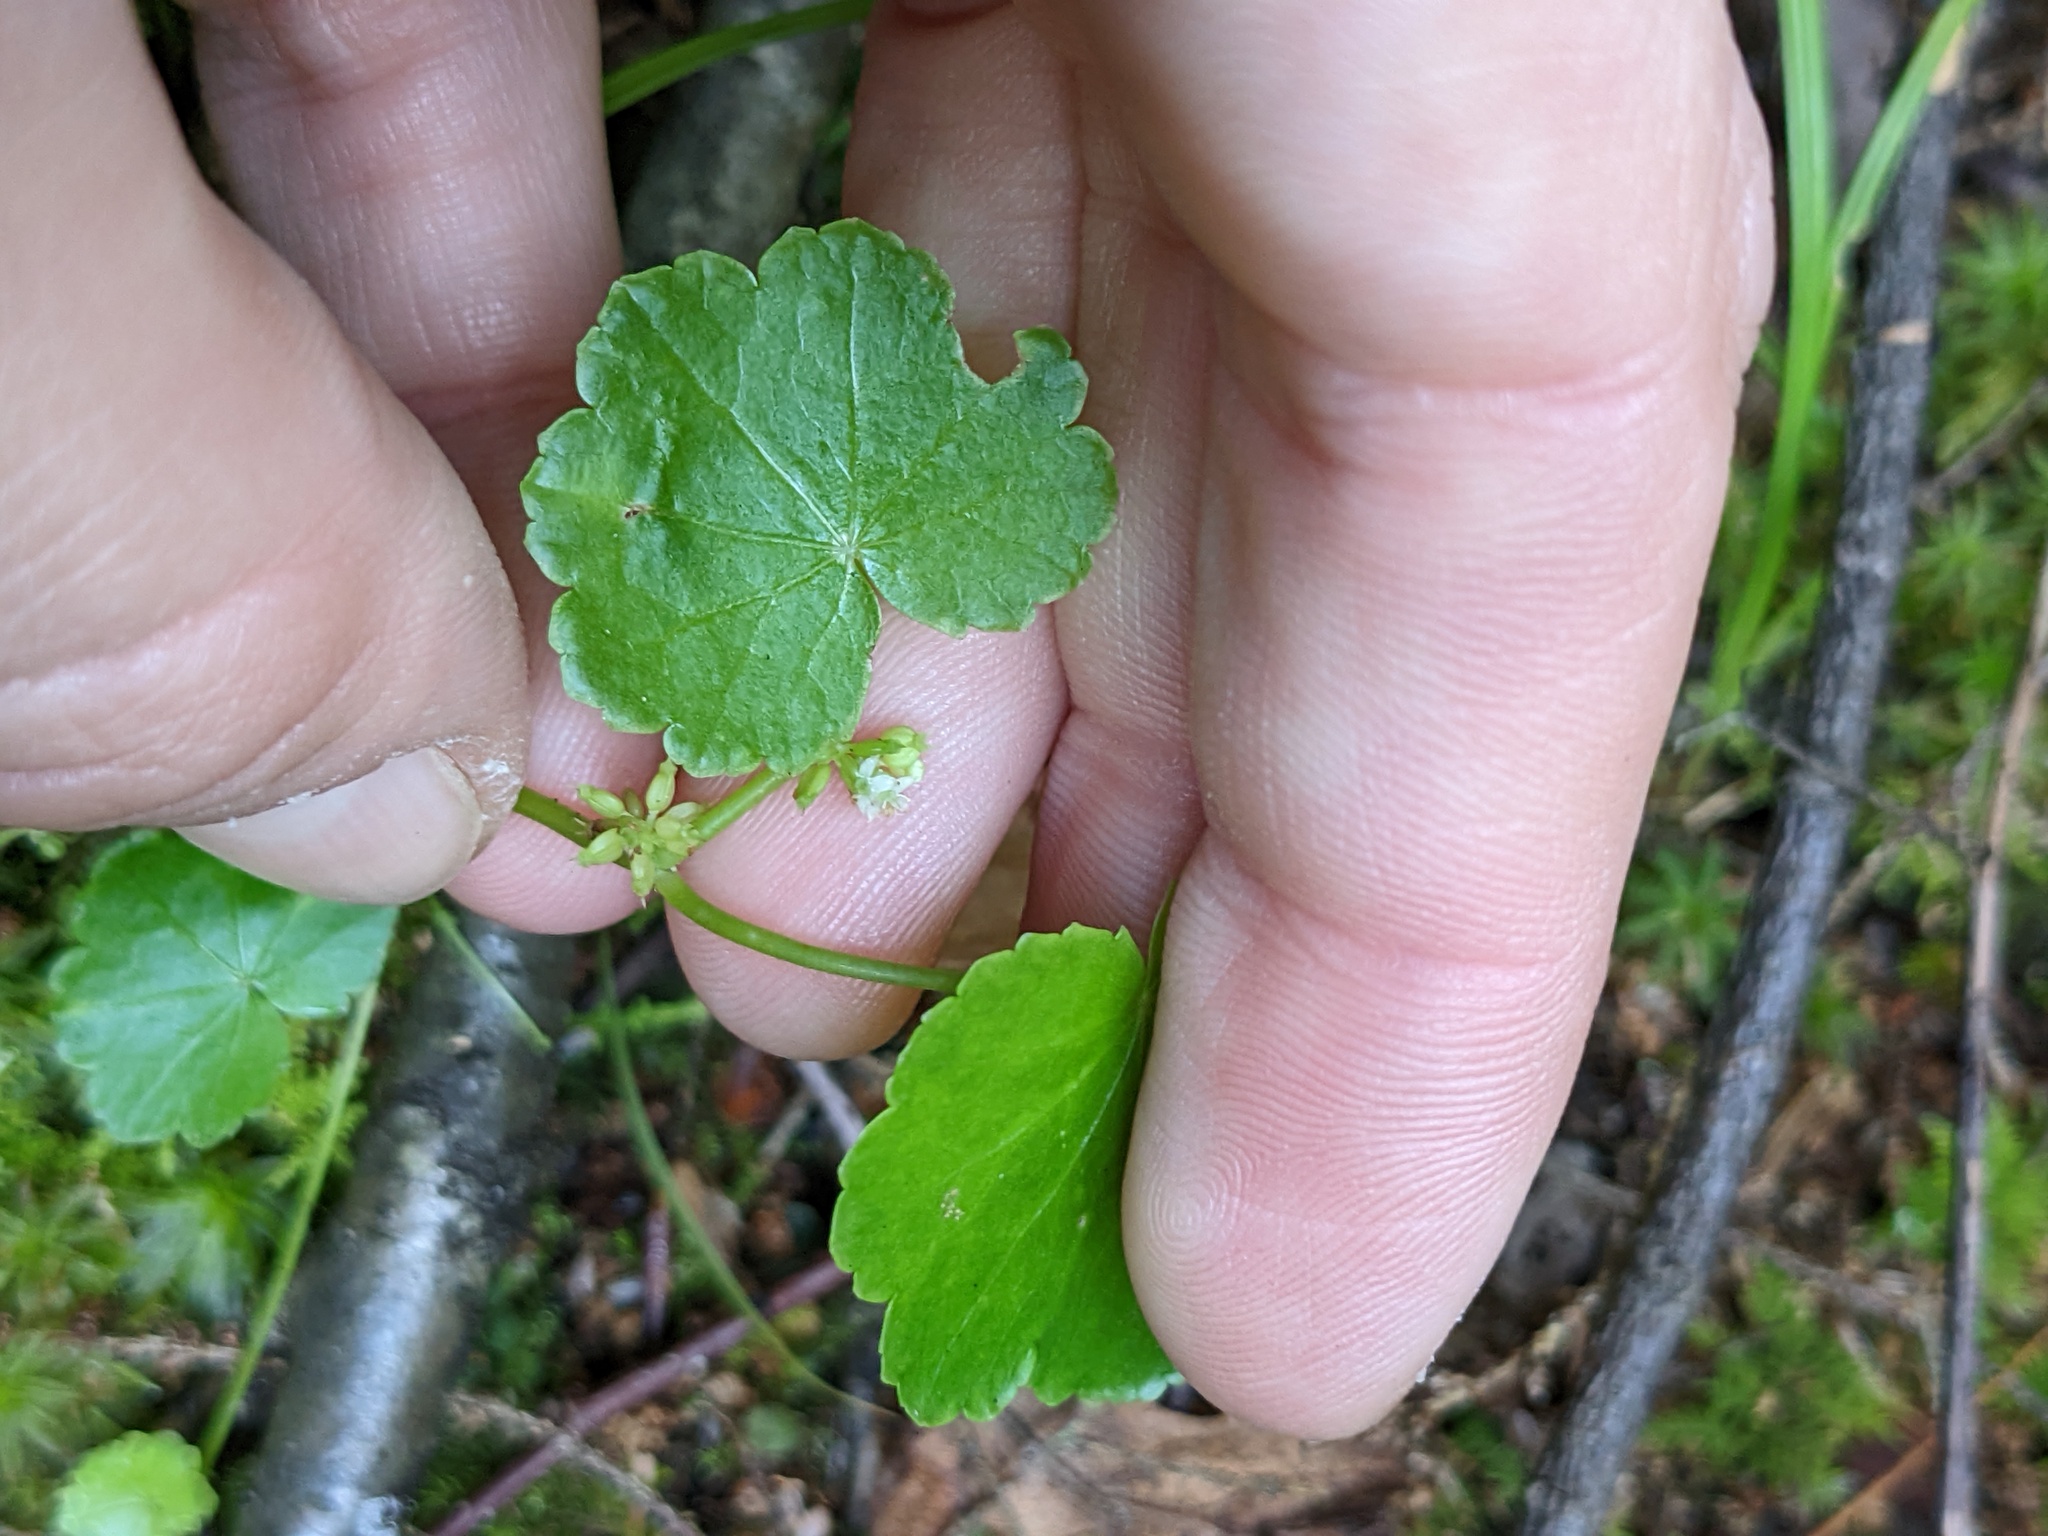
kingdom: Plantae
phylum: Tracheophyta
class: Magnoliopsida
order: Apiales
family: Araliaceae
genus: Hydrocotyle
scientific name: Hydrocotyle americana
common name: American water-pennywort
